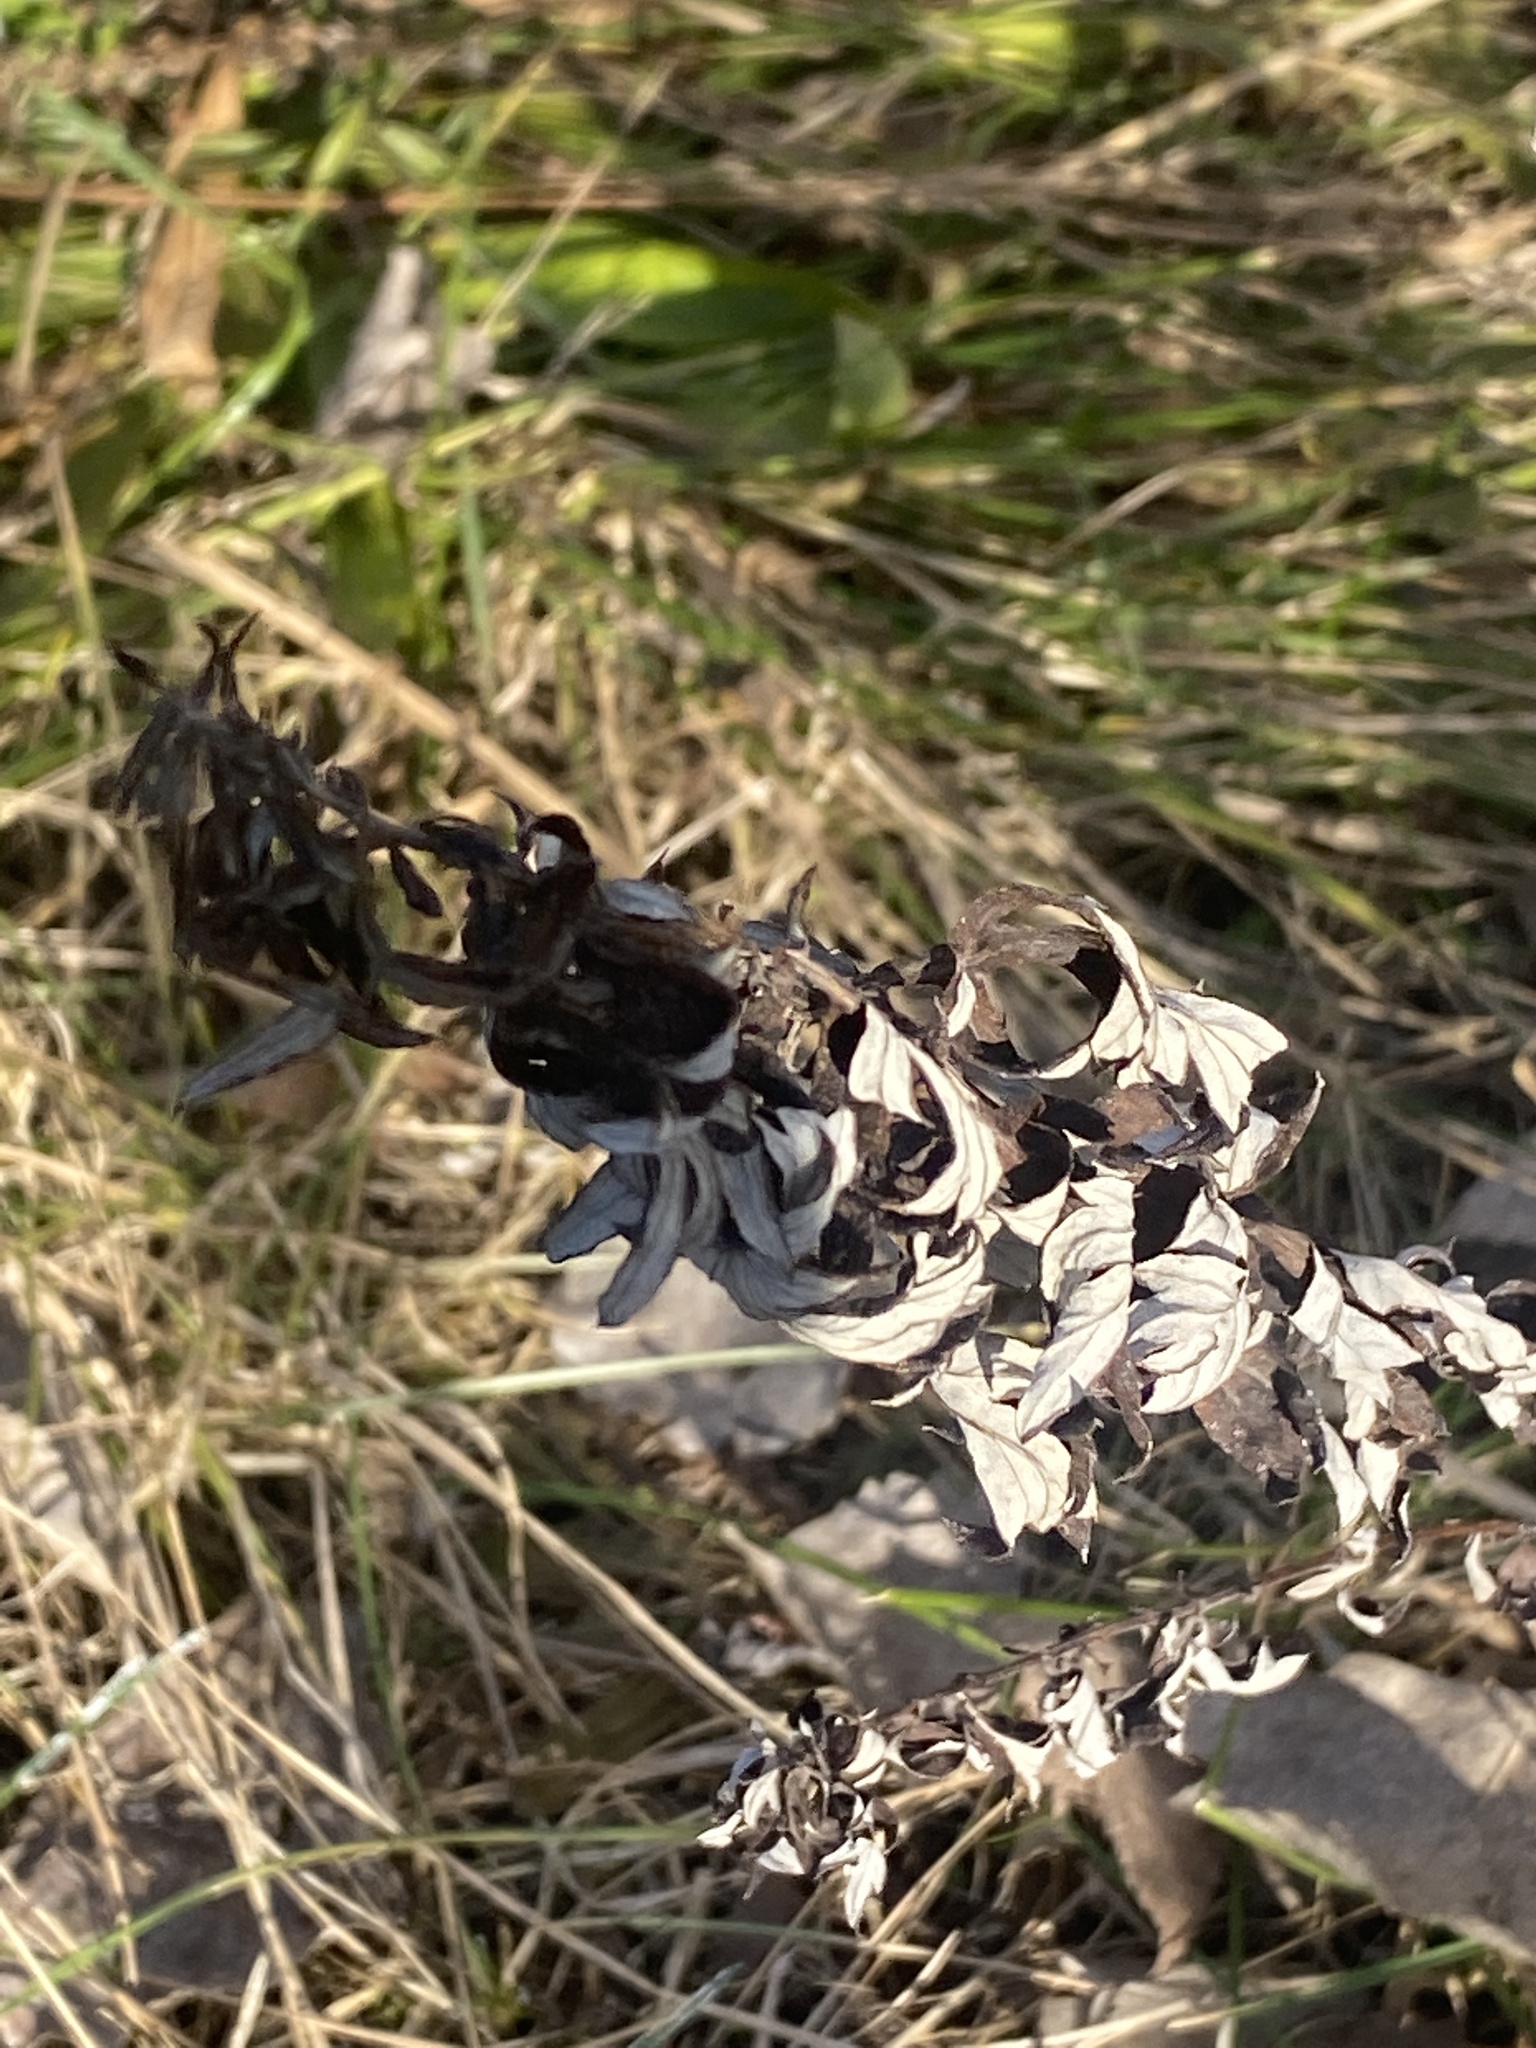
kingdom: Plantae
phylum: Tracheophyta
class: Magnoliopsida
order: Asterales
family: Asteraceae
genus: Artemisia
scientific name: Artemisia vulgaris
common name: Mugwort
